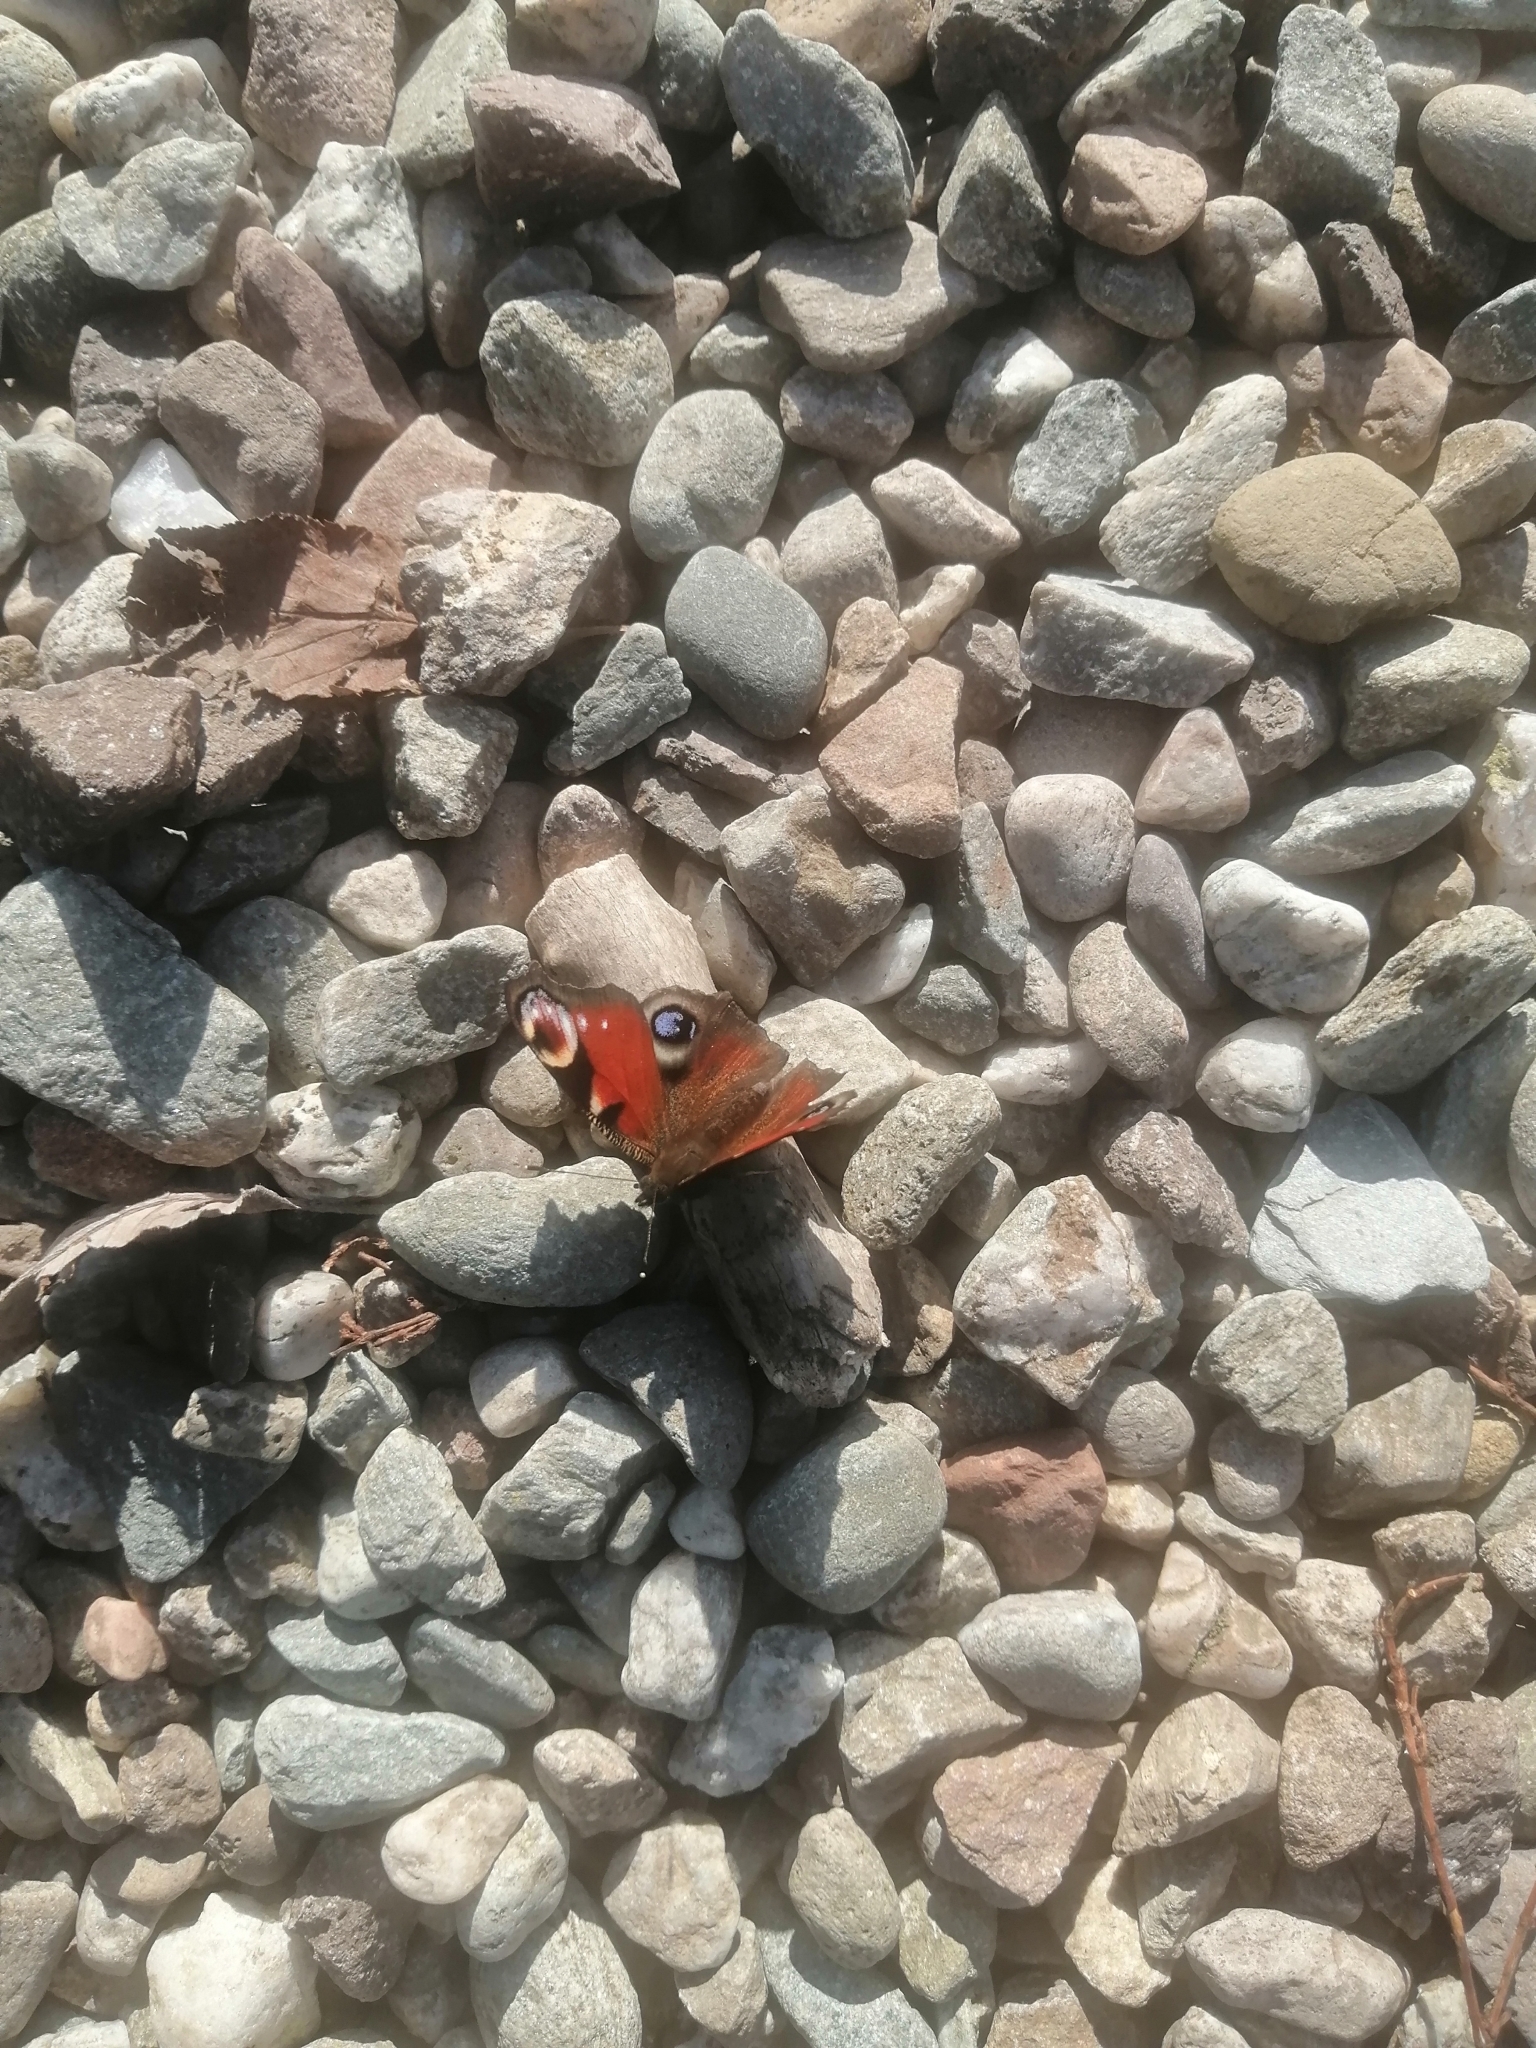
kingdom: Animalia
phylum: Arthropoda
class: Insecta
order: Lepidoptera
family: Nymphalidae
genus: Aglais
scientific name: Aglais io
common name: Peacock
